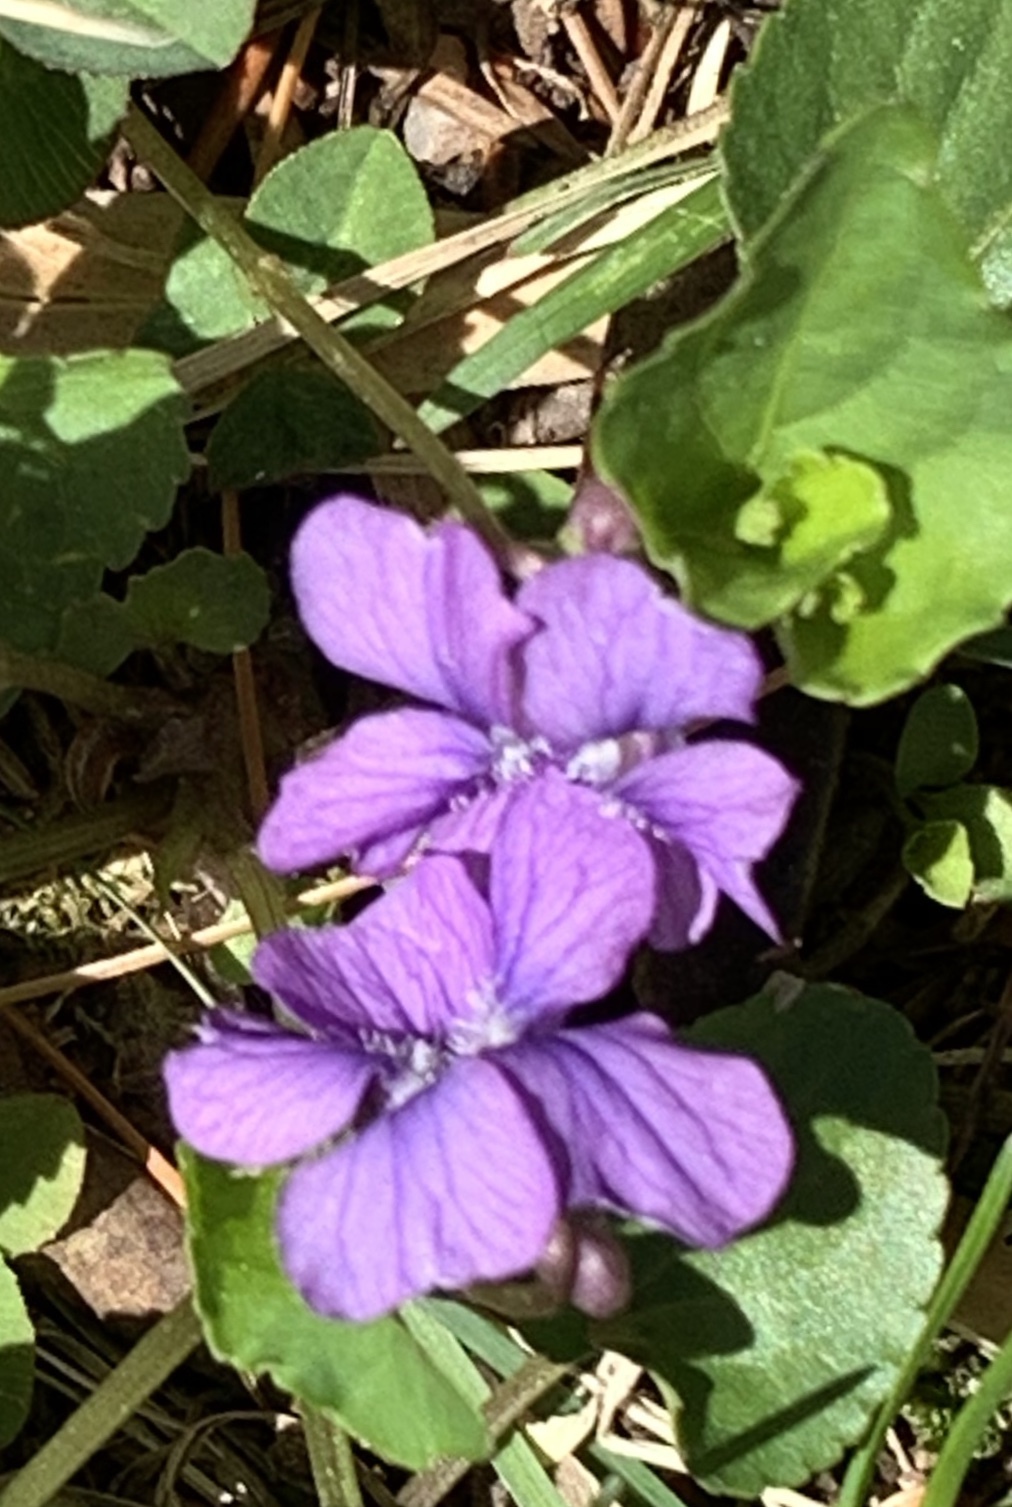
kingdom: Plantae
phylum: Tracheophyta
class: Magnoliopsida
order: Malpighiales
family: Violaceae
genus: Viola
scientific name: Viola sororia
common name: Dooryard violet
